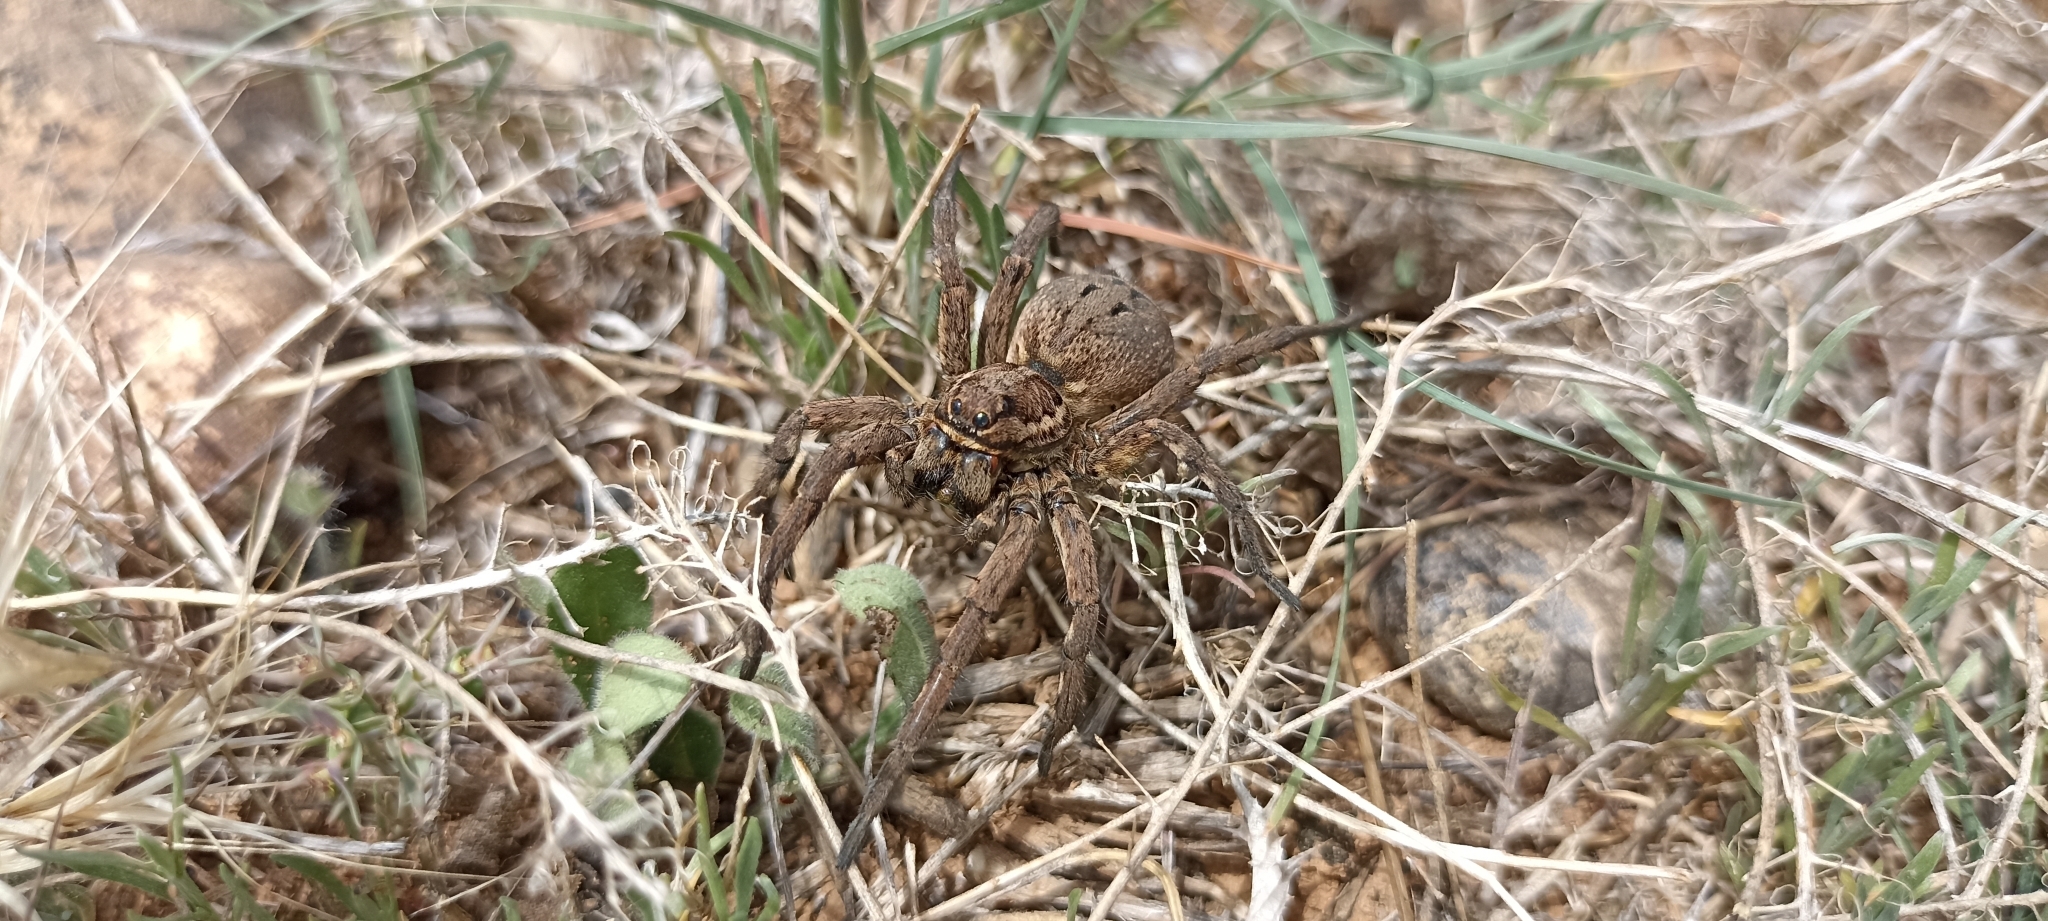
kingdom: Animalia
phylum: Arthropoda
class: Arachnida
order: Araneae
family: Lycosidae
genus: Lycosa
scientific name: Lycosa tarantula
